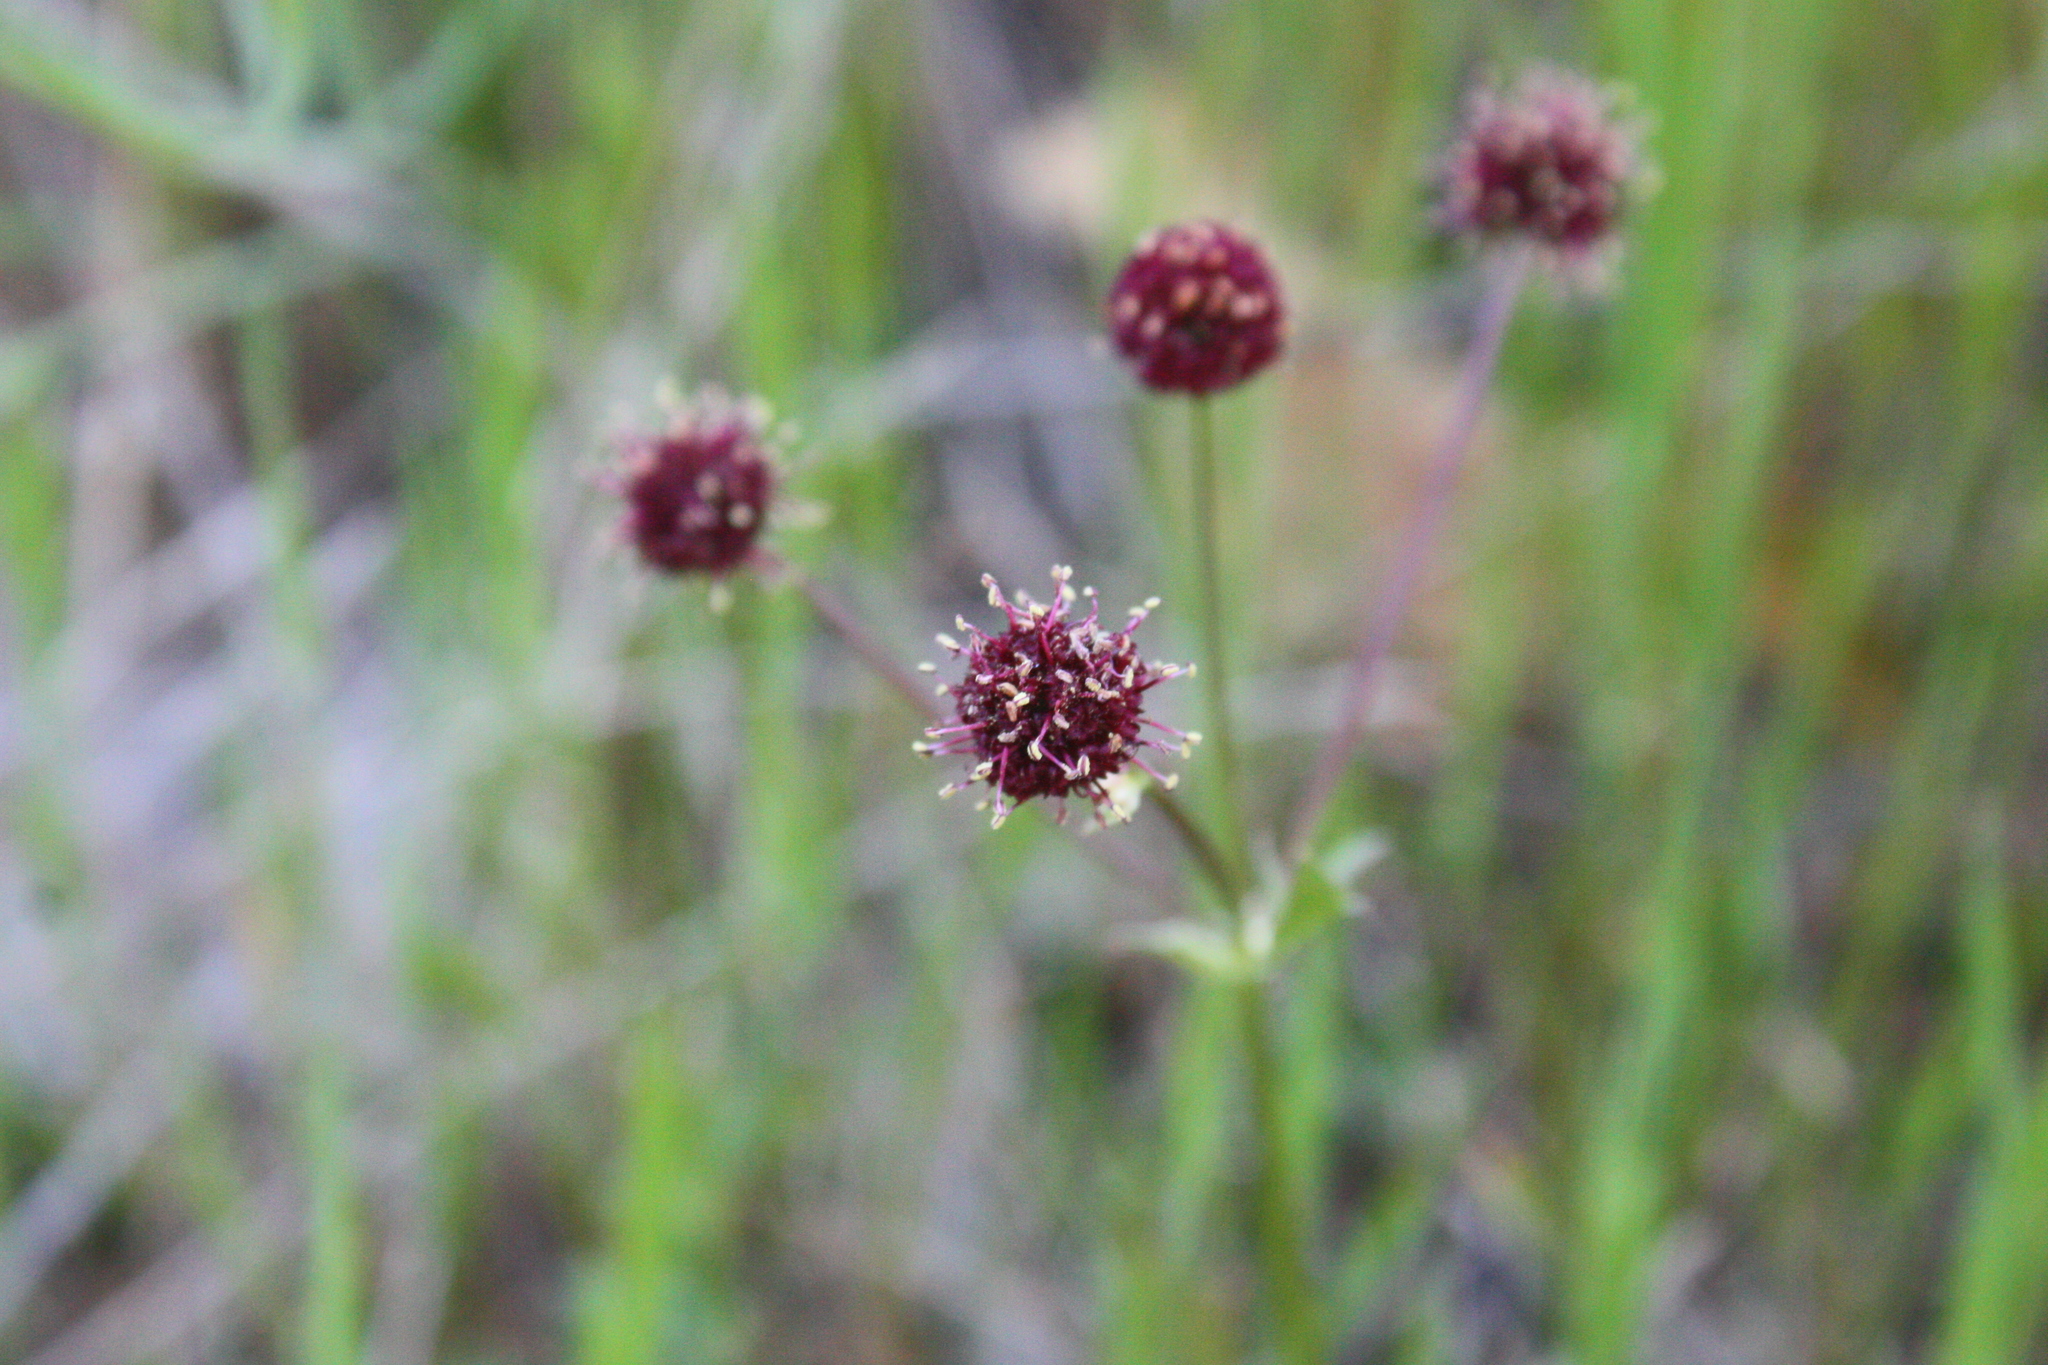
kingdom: Plantae
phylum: Tracheophyta
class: Magnoliopsida
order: Apiales
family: Apiaceae
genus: Sanicula
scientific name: Sanicula bipinnatifida
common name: Shoe-buttons
